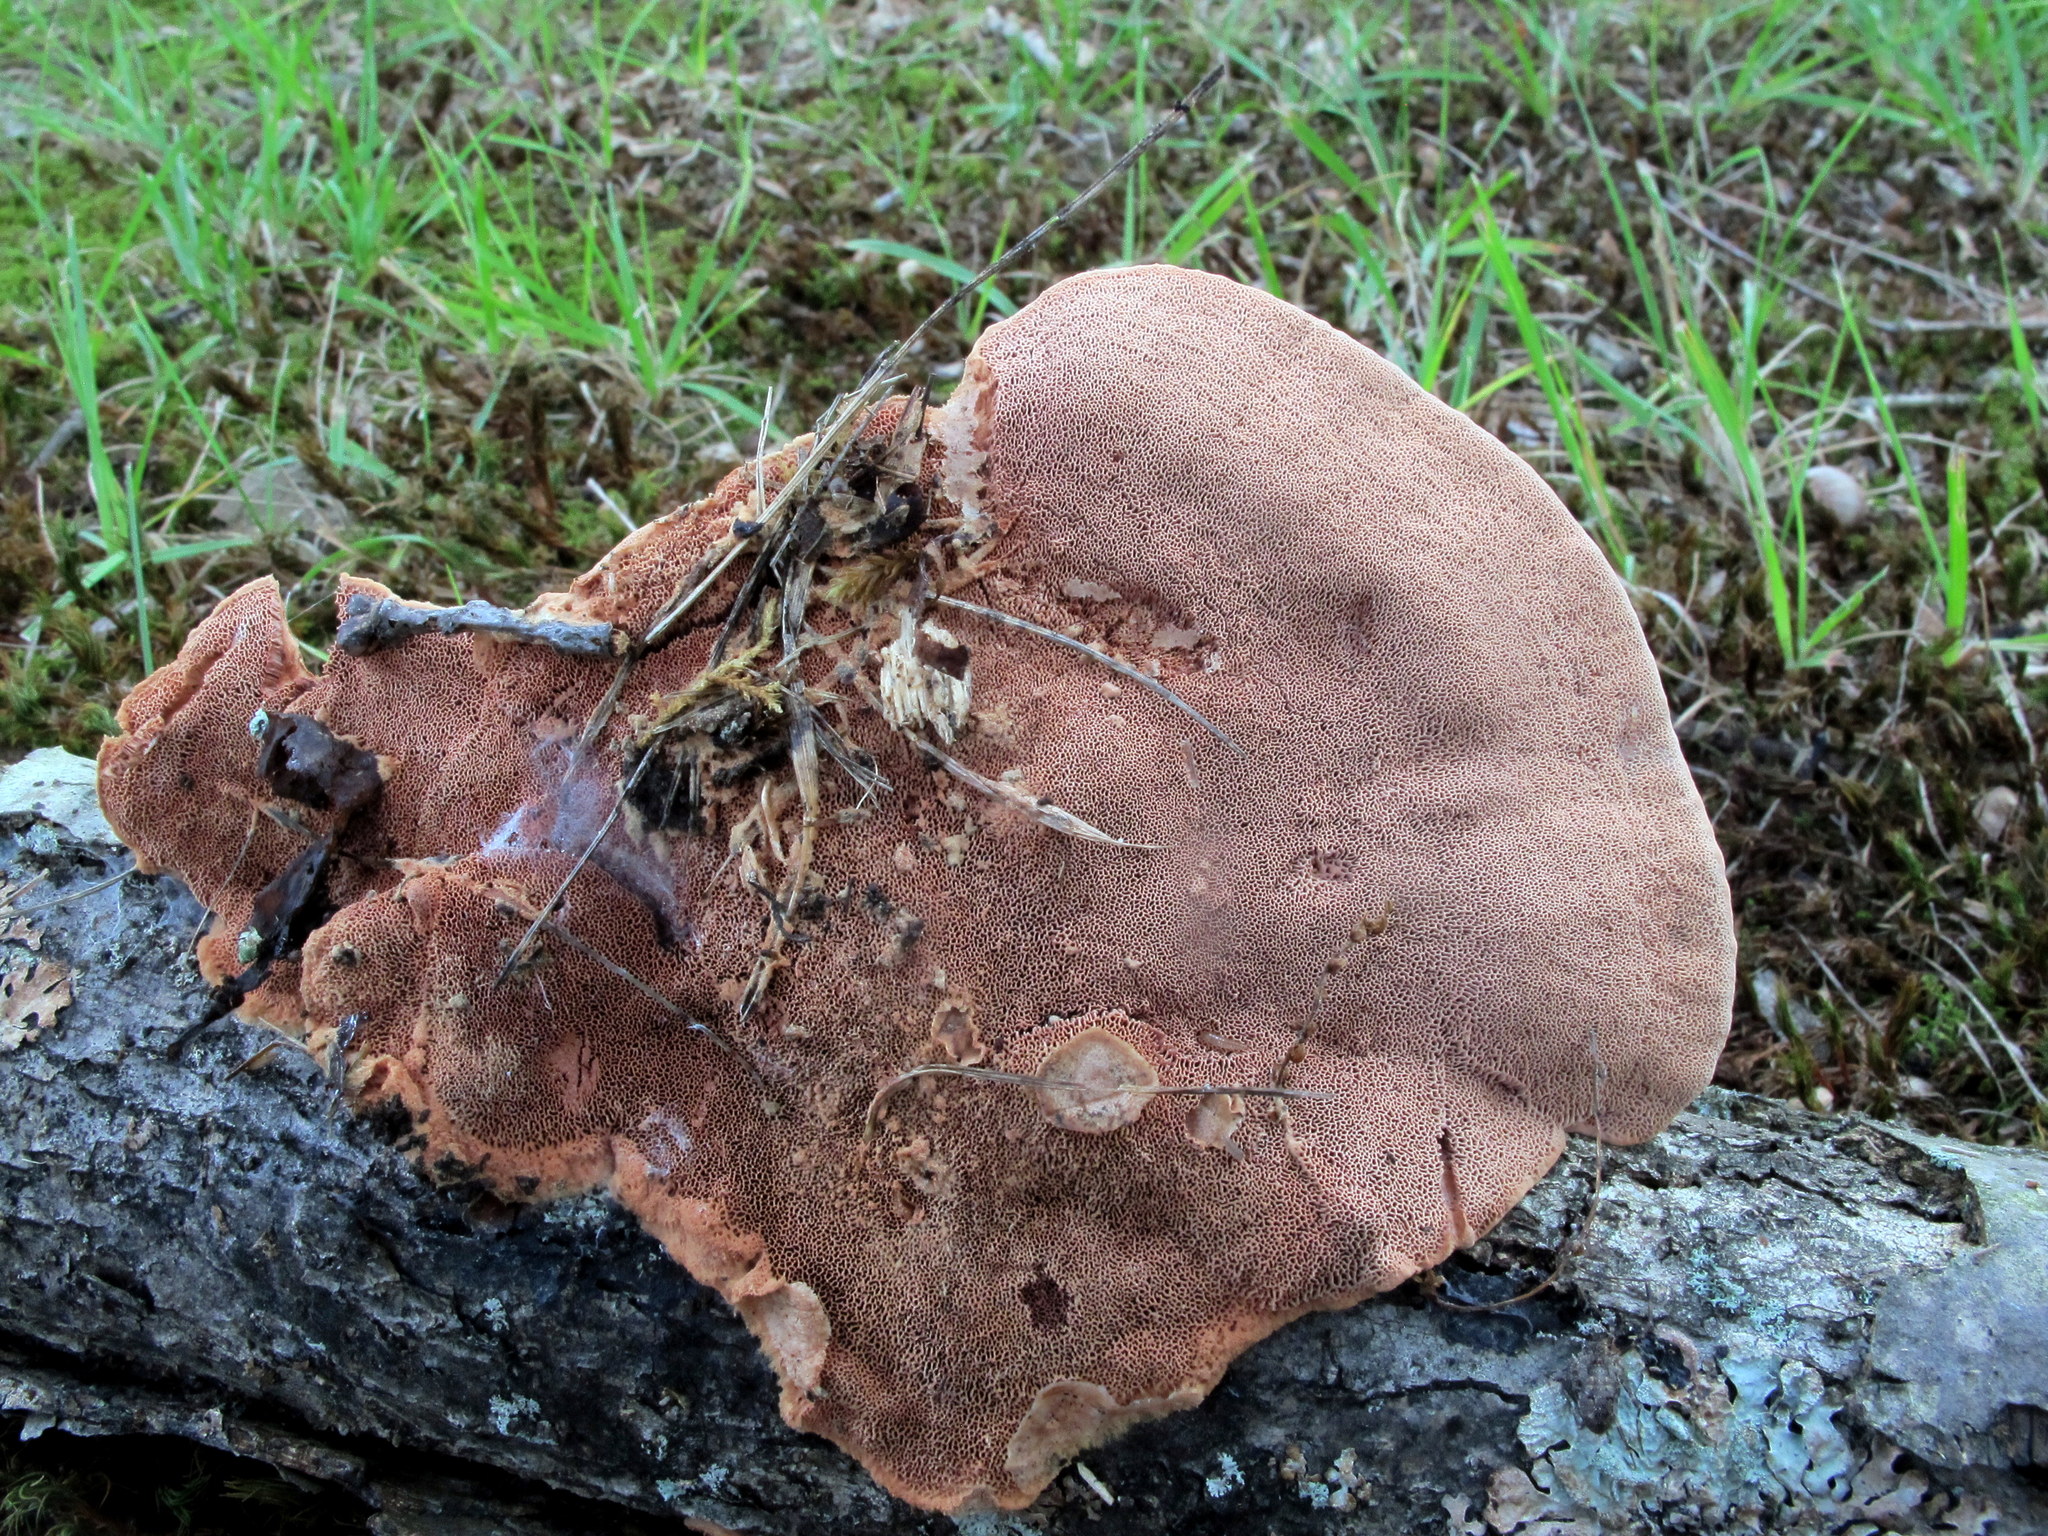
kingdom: Fungi
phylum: Basidiomycota
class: Agaricomycetes
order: Polyporales
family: Phanerochaetaceae
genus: Hapalopilus
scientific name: Hapalopilus rutilans
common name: Tender nesting polypore
